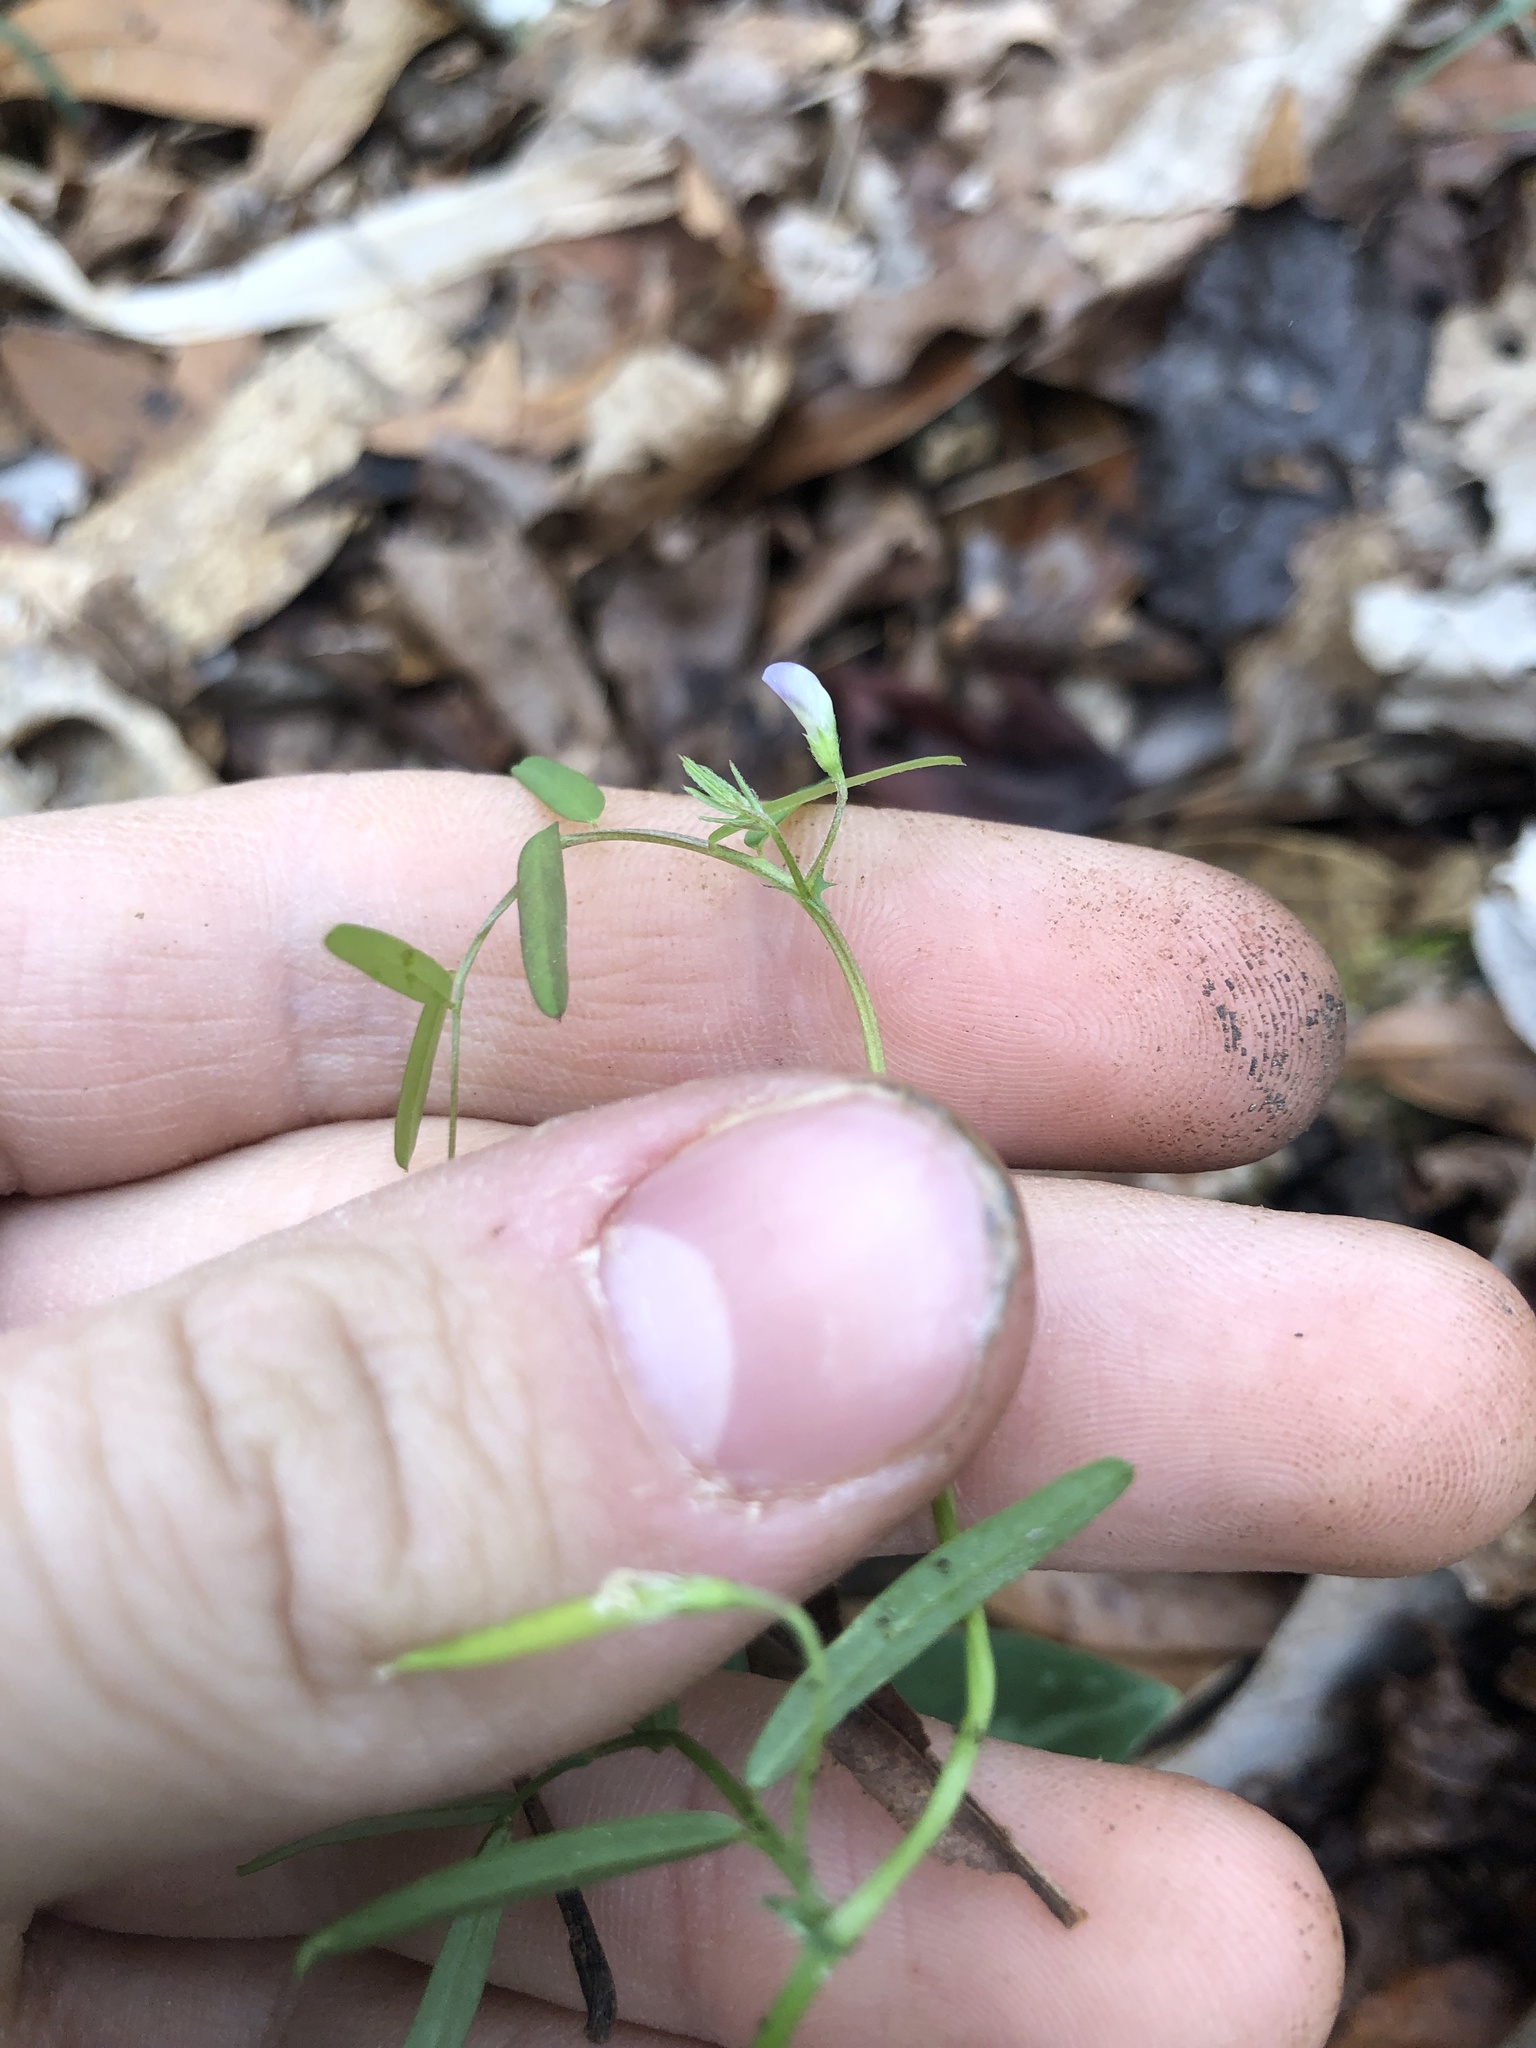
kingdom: Plantae
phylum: Tracheophyta
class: Magnoliopsida
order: Fabales
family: Fabaceae
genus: Vicia
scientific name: Vicia minutiflora
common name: Pygmy-flower vetch
